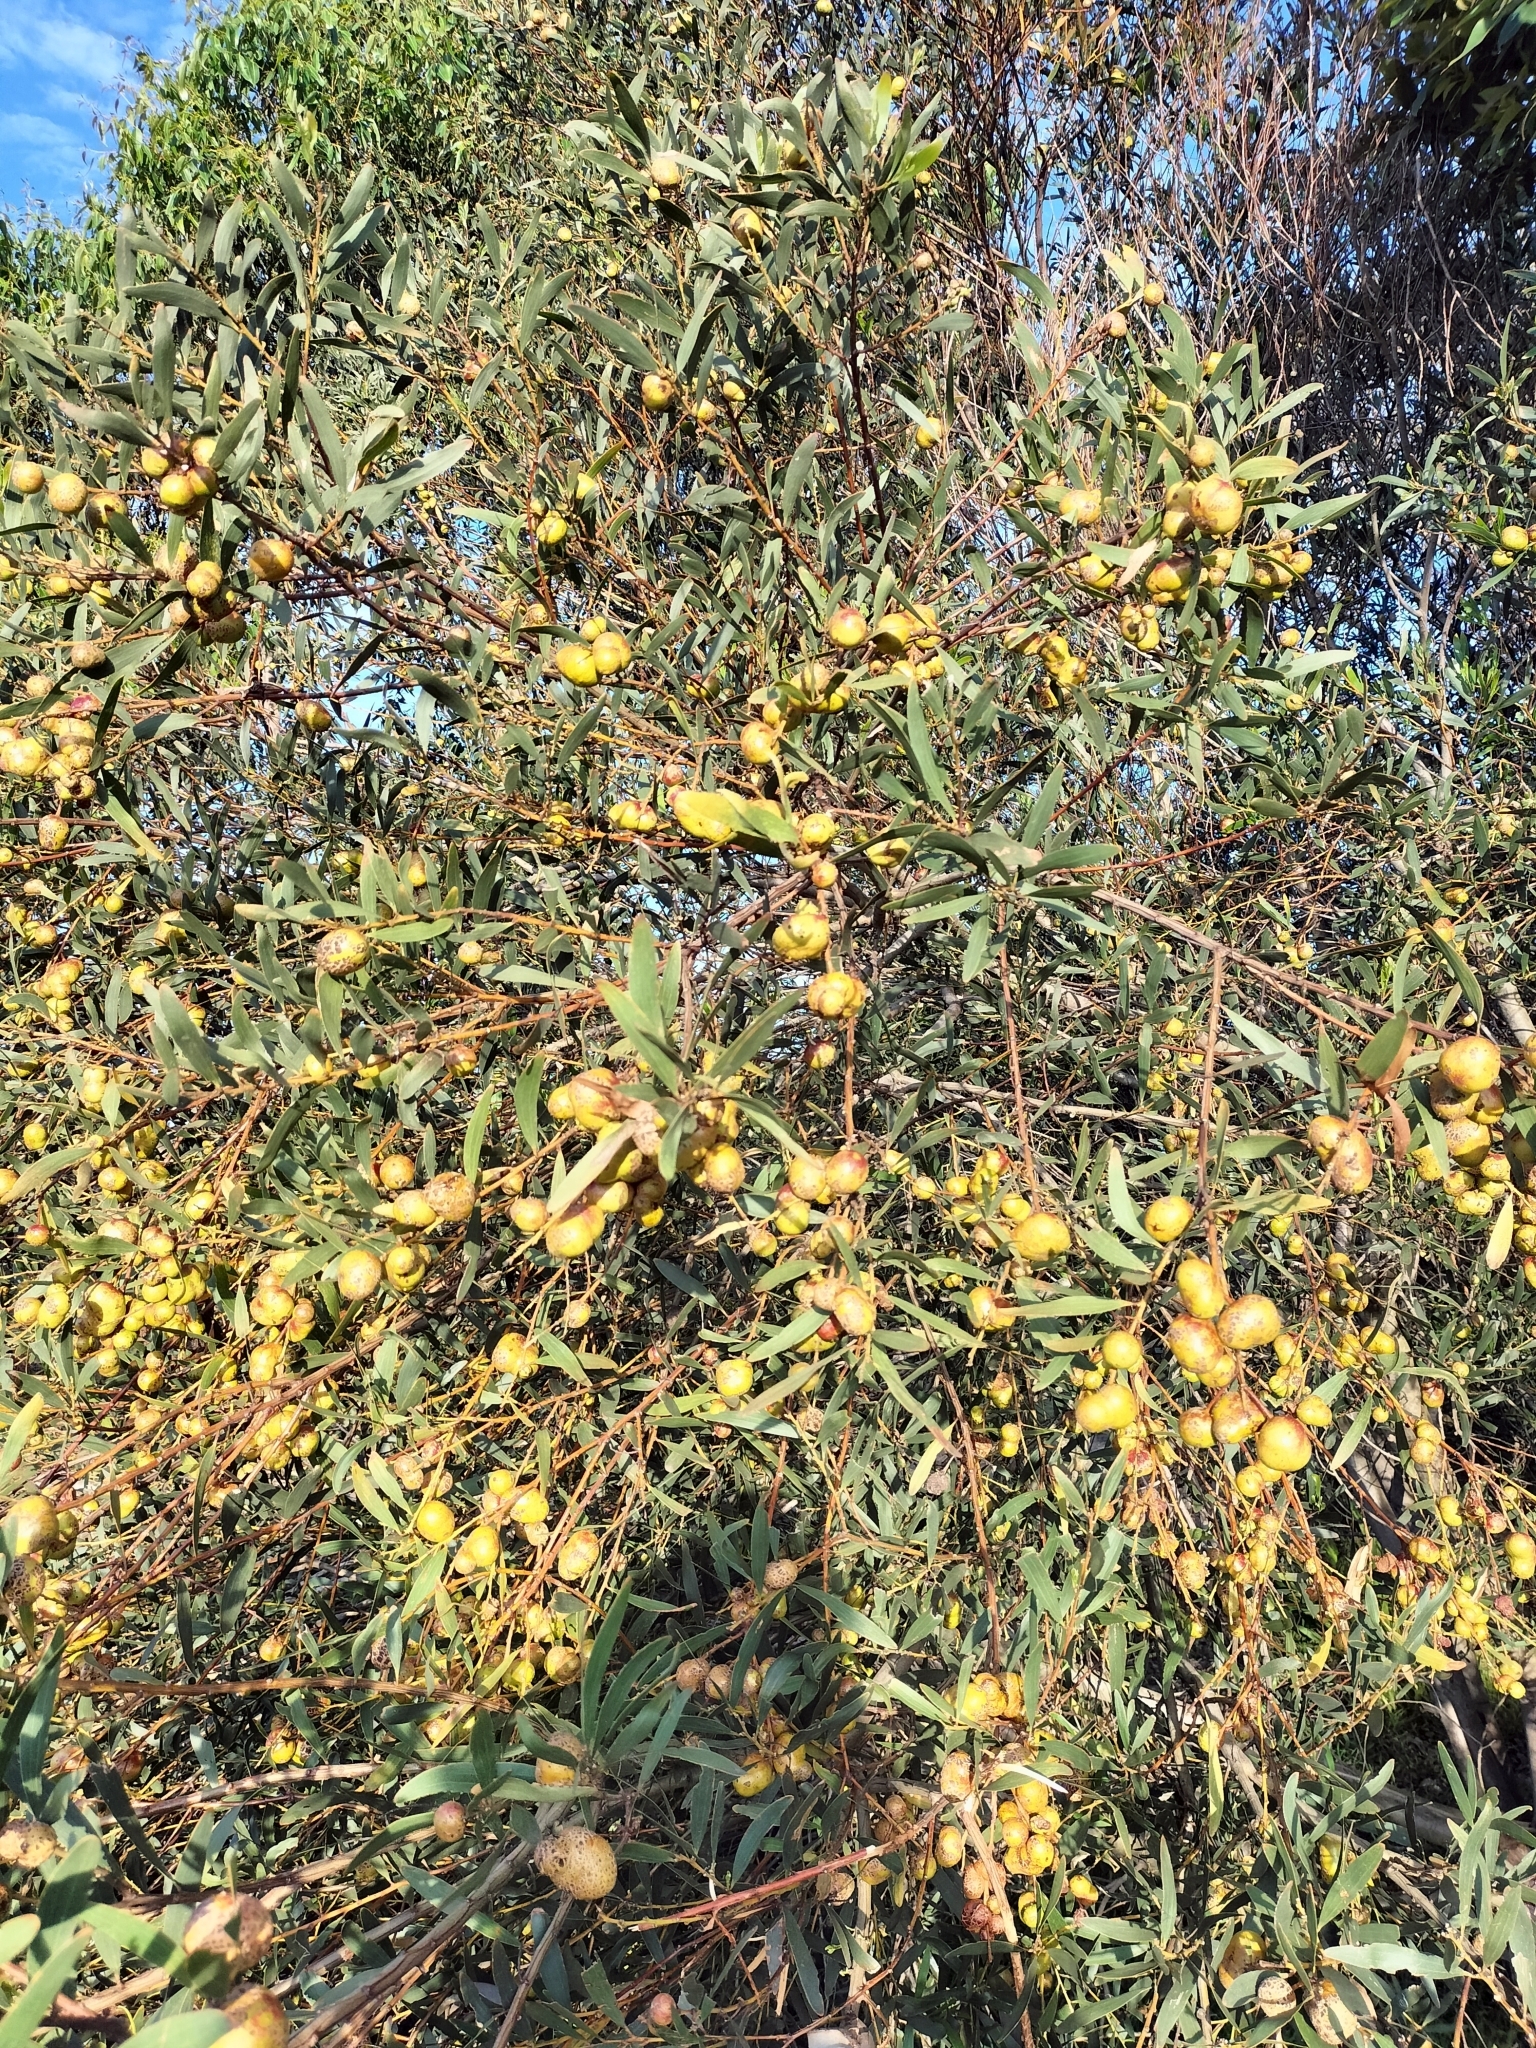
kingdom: Animalia
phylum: Arthropoda
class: Insecta
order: Hymenoptera
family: Pteromalidae
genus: Trichilogaster
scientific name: Trichilogaster acaciaelongifoliae
